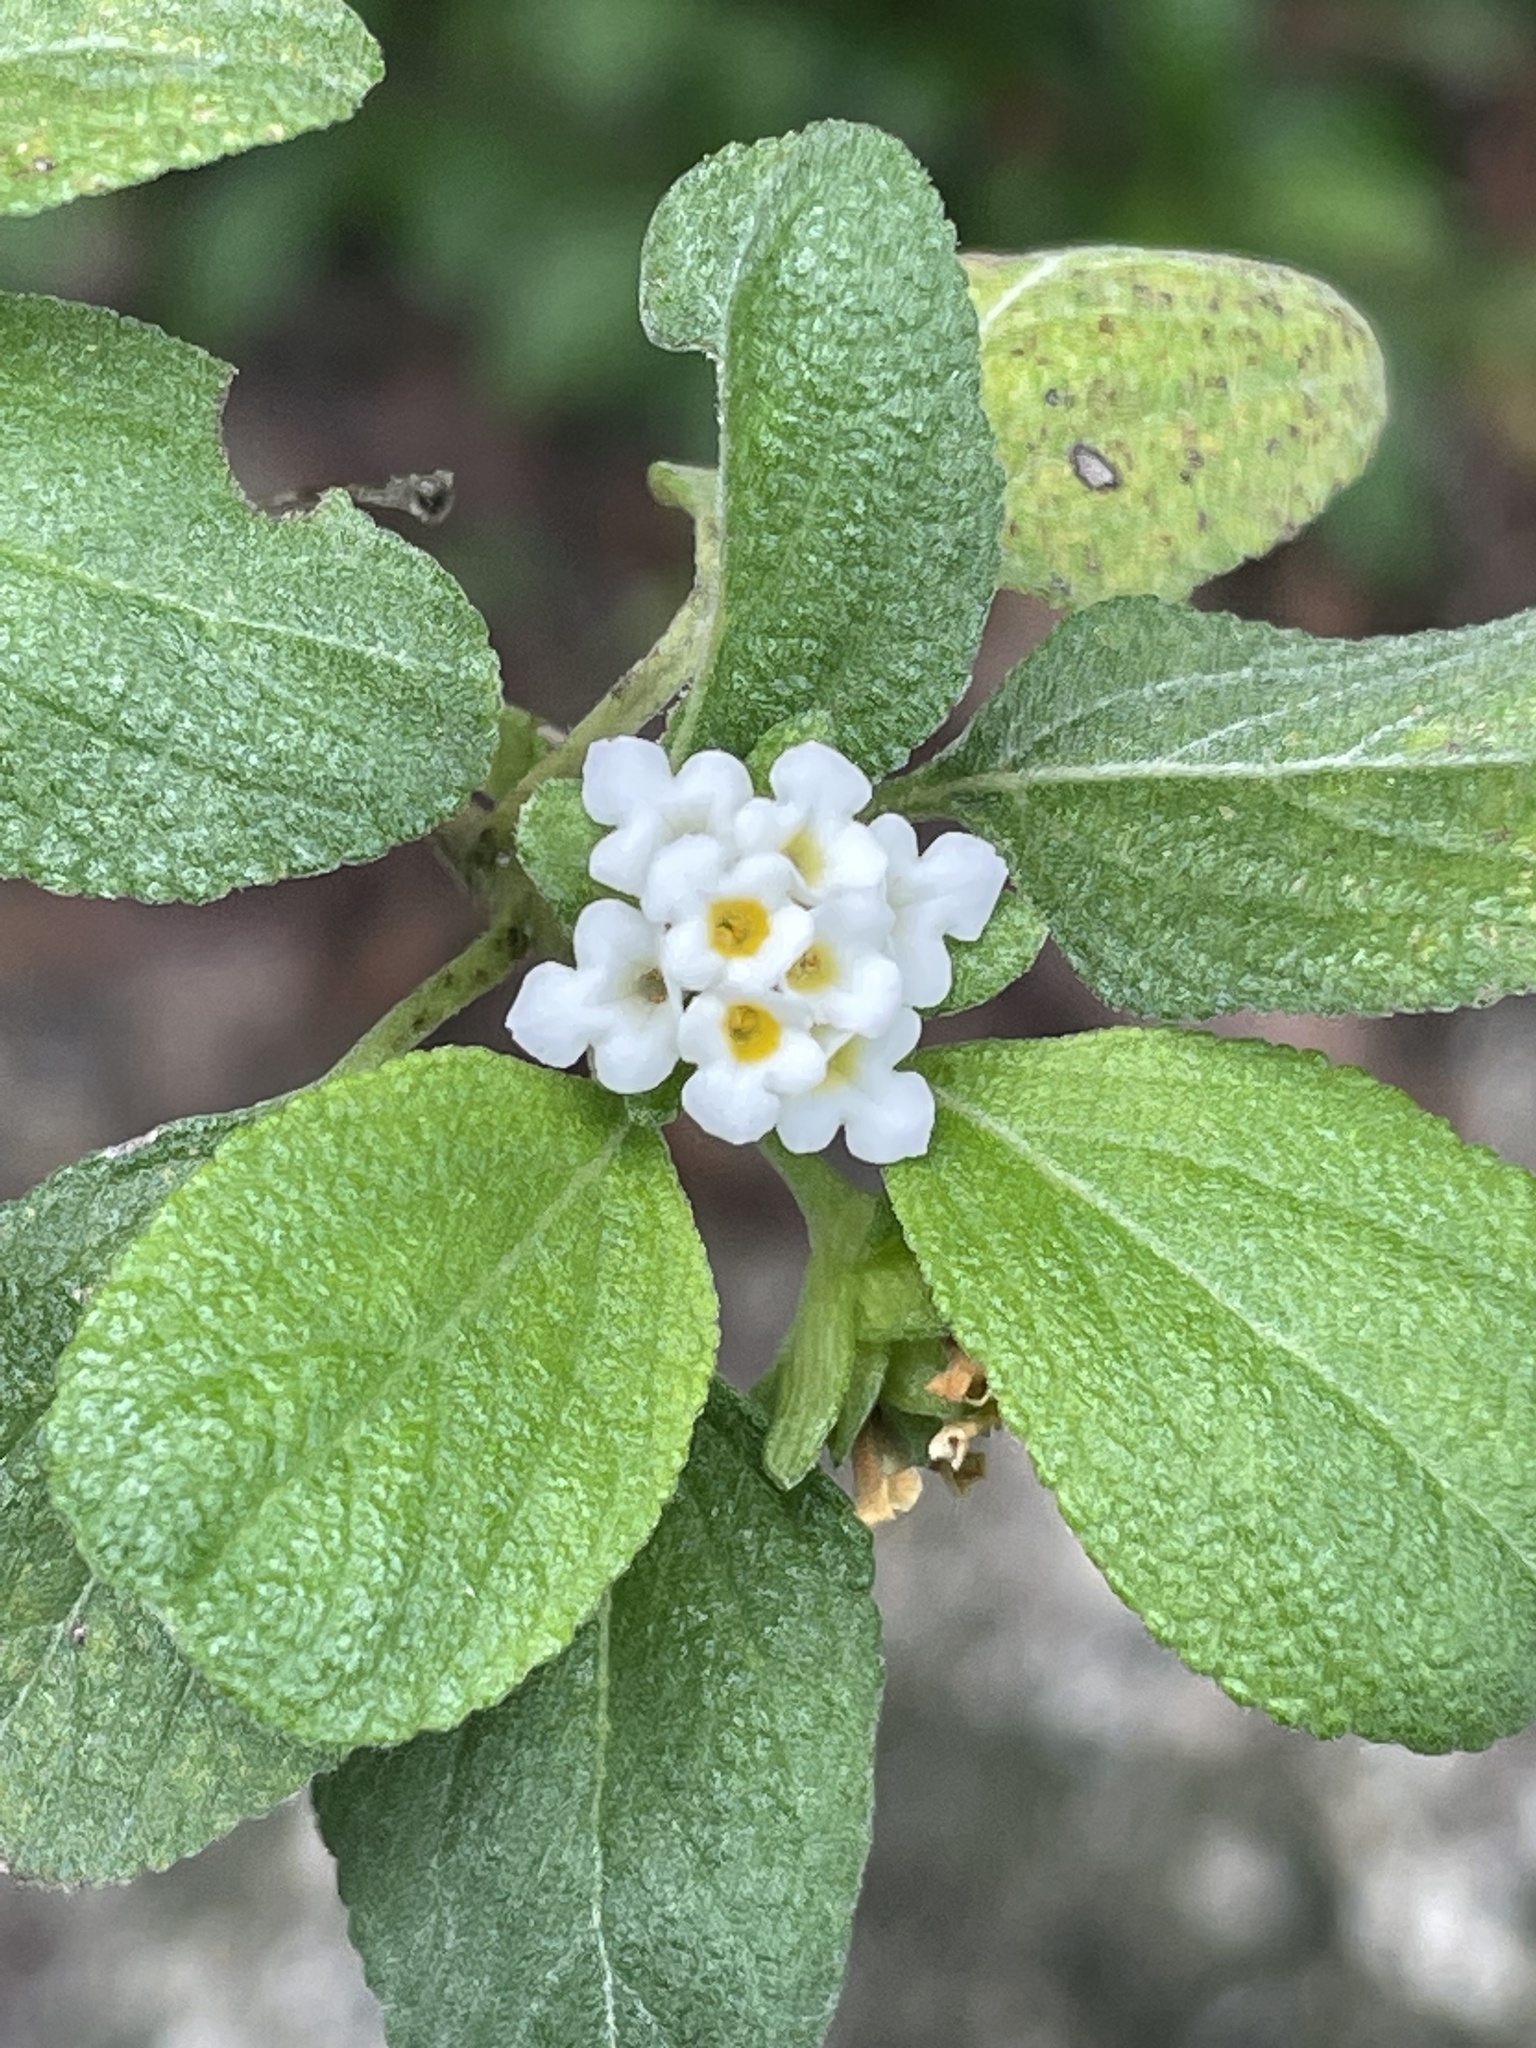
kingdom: Plantae
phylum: Tracheophyta
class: Magnoliopsida
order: Lamiales
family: Verbenaceae
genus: Lantana
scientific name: Lantana involucrata
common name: Black sage
